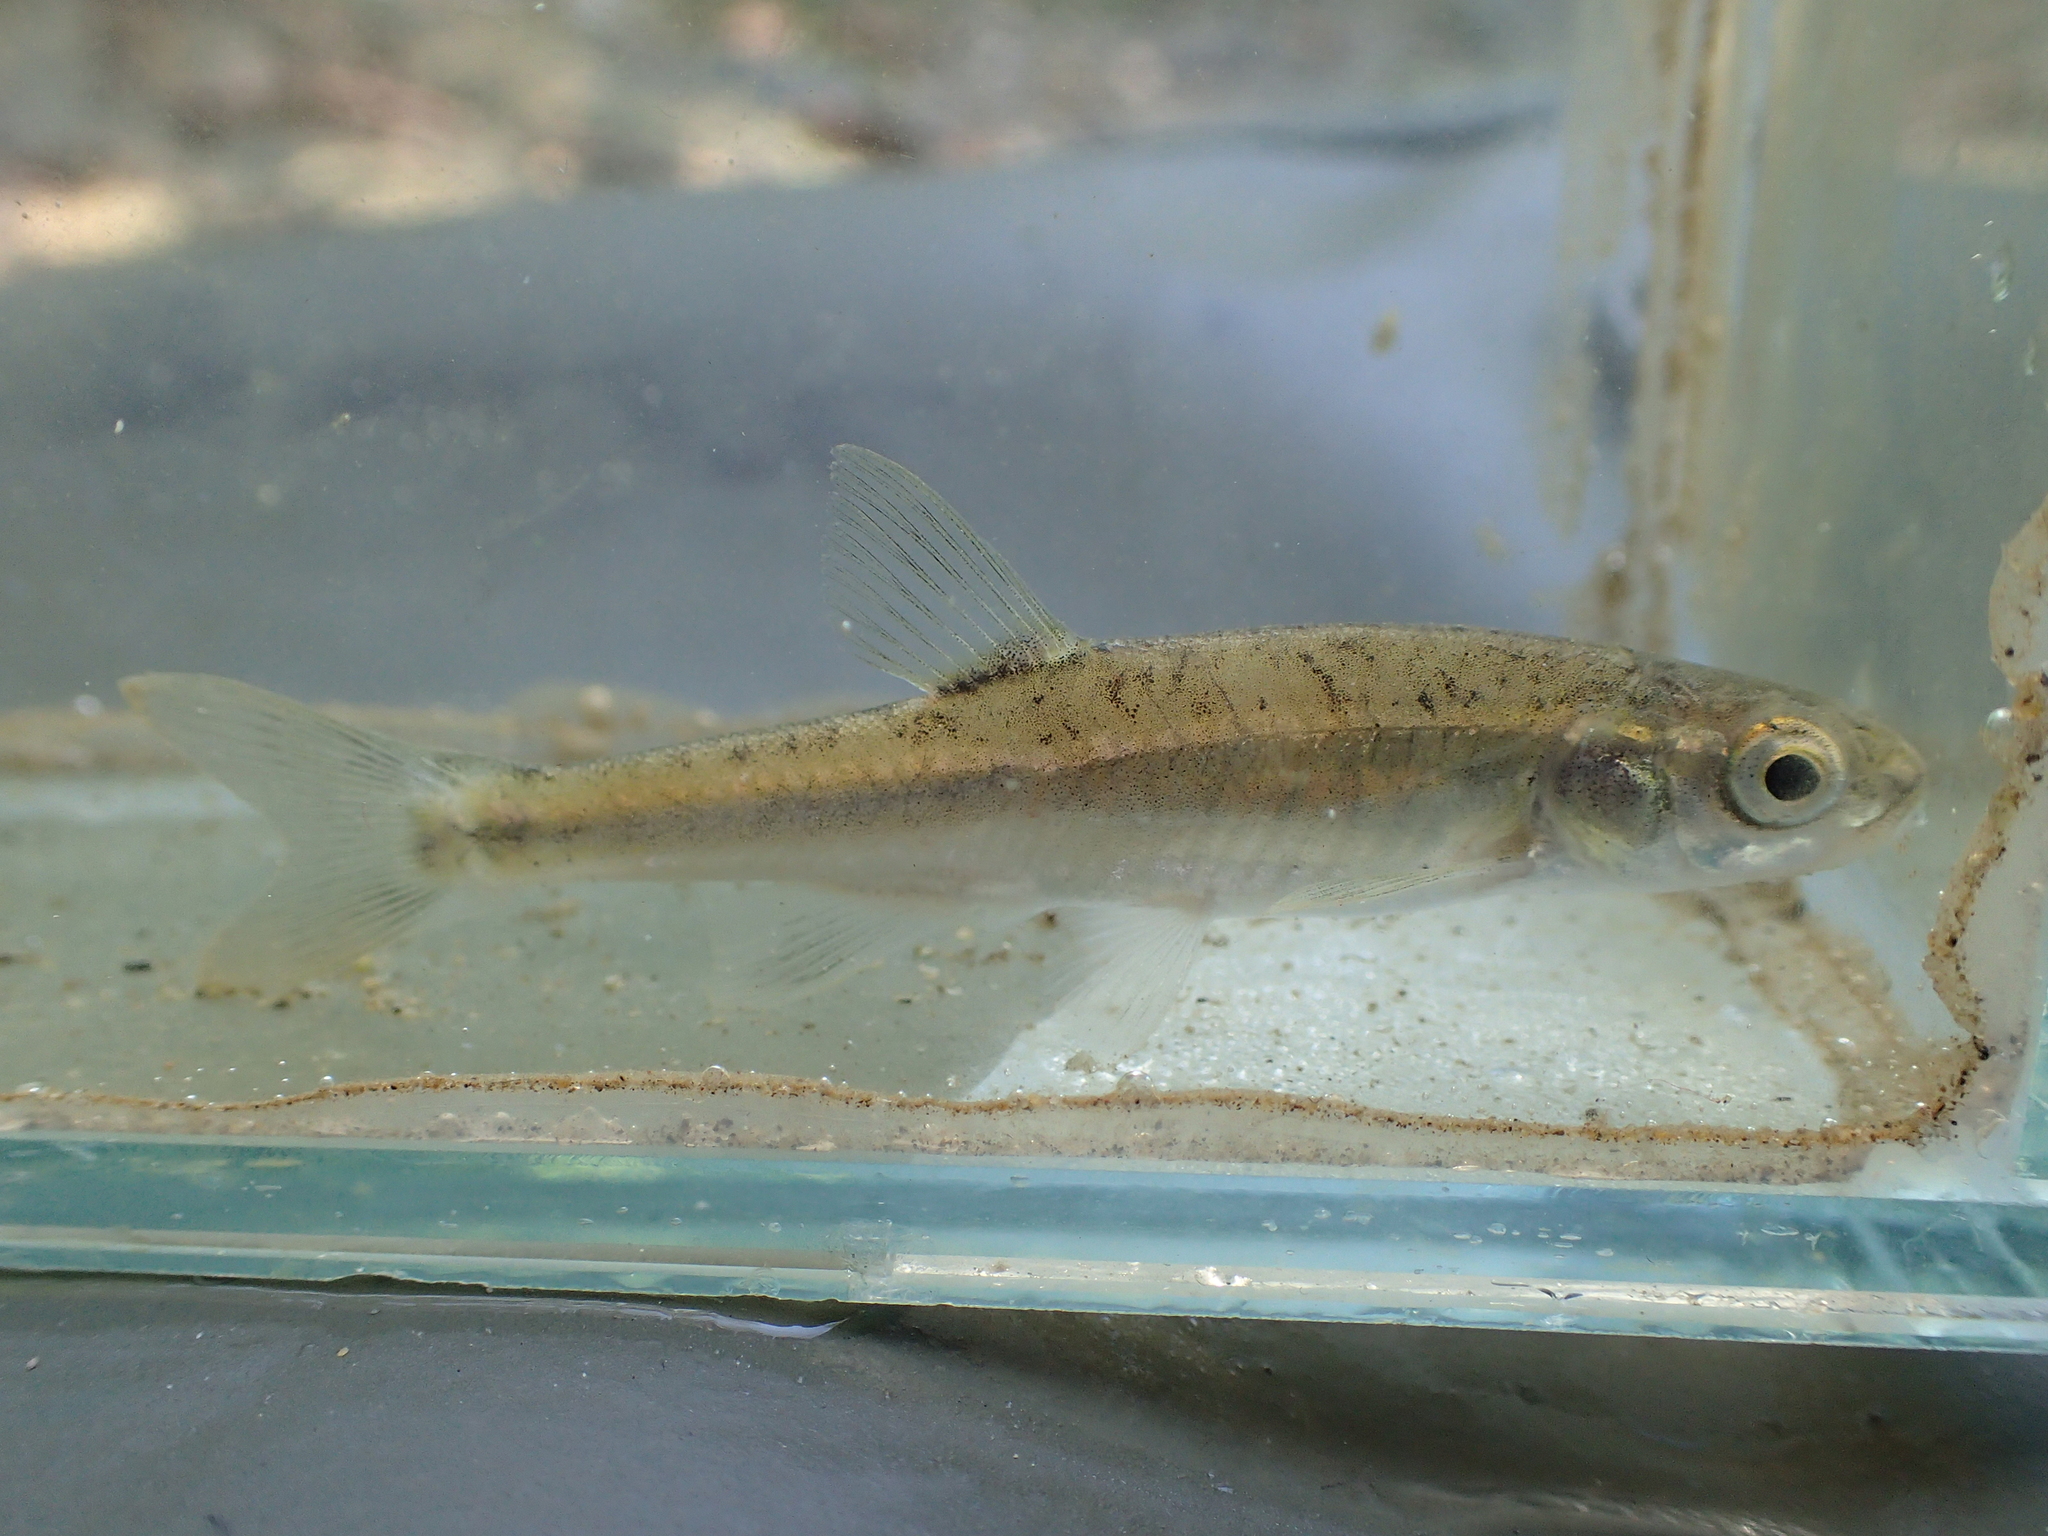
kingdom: Animalia
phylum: Chordata
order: Cypriniformes
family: Cyprinidae
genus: Phoxinus
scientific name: Phoxinus septimaniae
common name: Languedoc minnow
